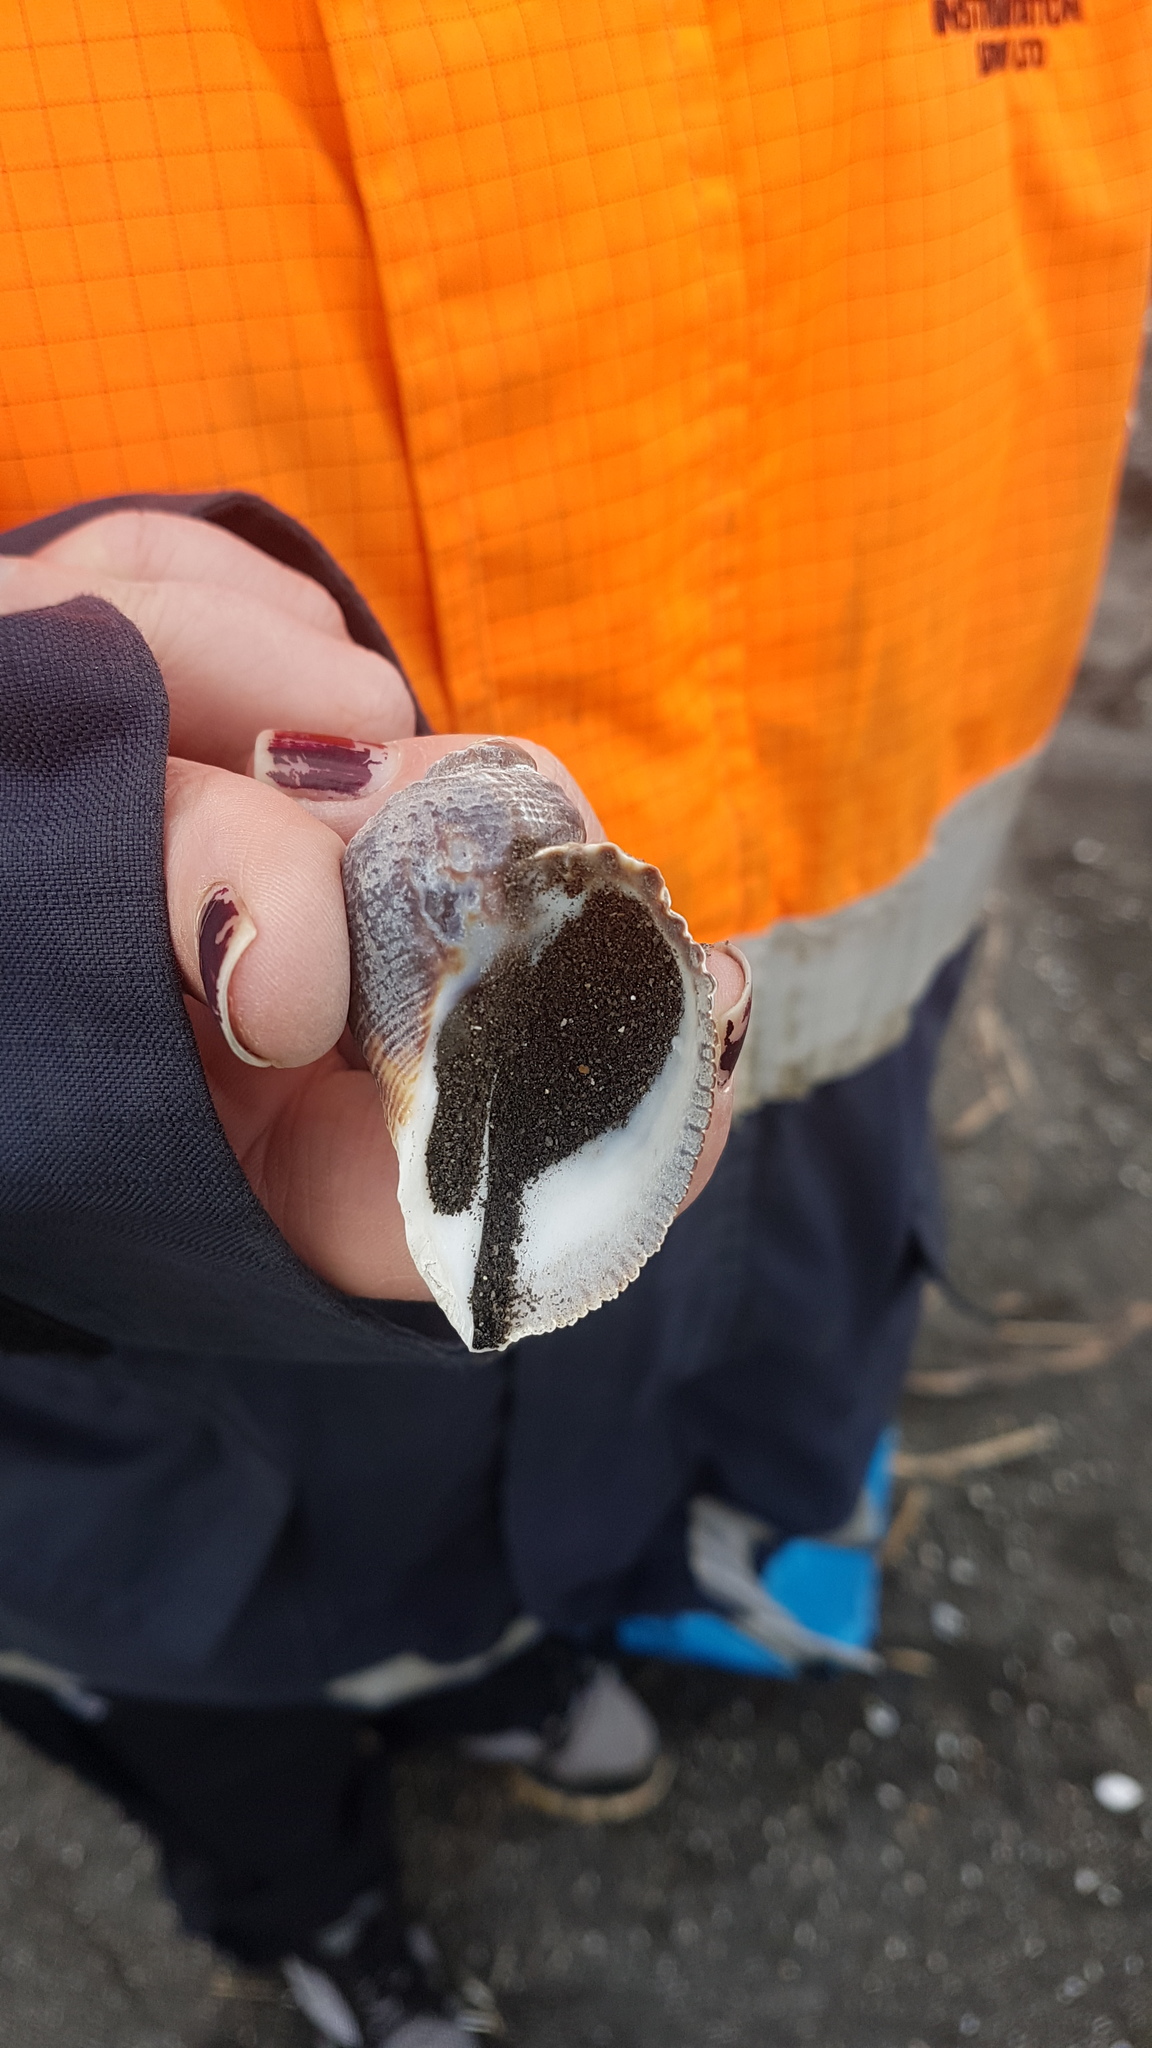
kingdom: Animalia
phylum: Mollusca
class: Gastropoda
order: Neogastropoda
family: Muricidae
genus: Haustrum
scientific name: Haustrum haustorium
